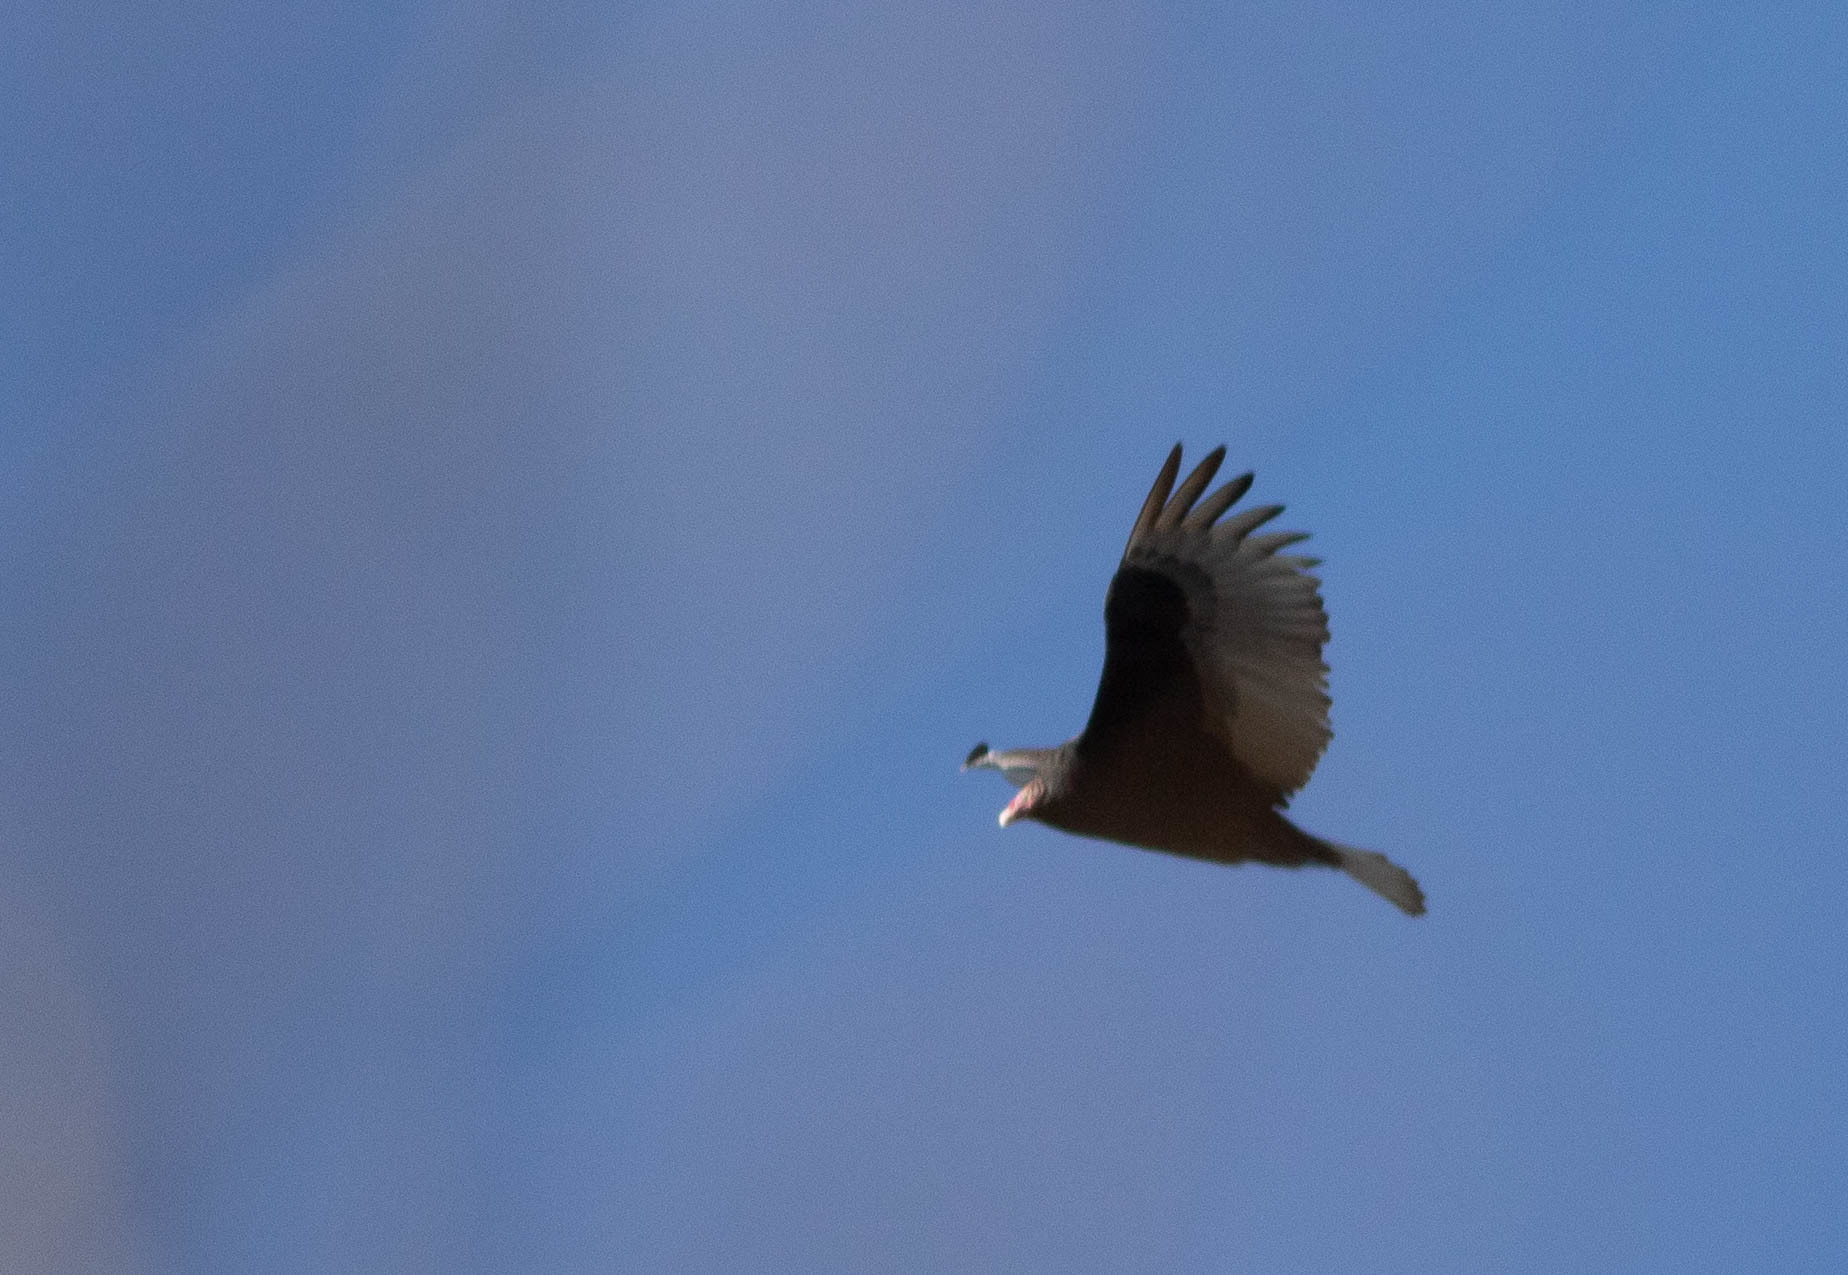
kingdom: Animalia
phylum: Chordata
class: Aves
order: Accipitriformes
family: Cathartidae
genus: Cathartes
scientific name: Cathartes aura
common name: Turkey vulture
